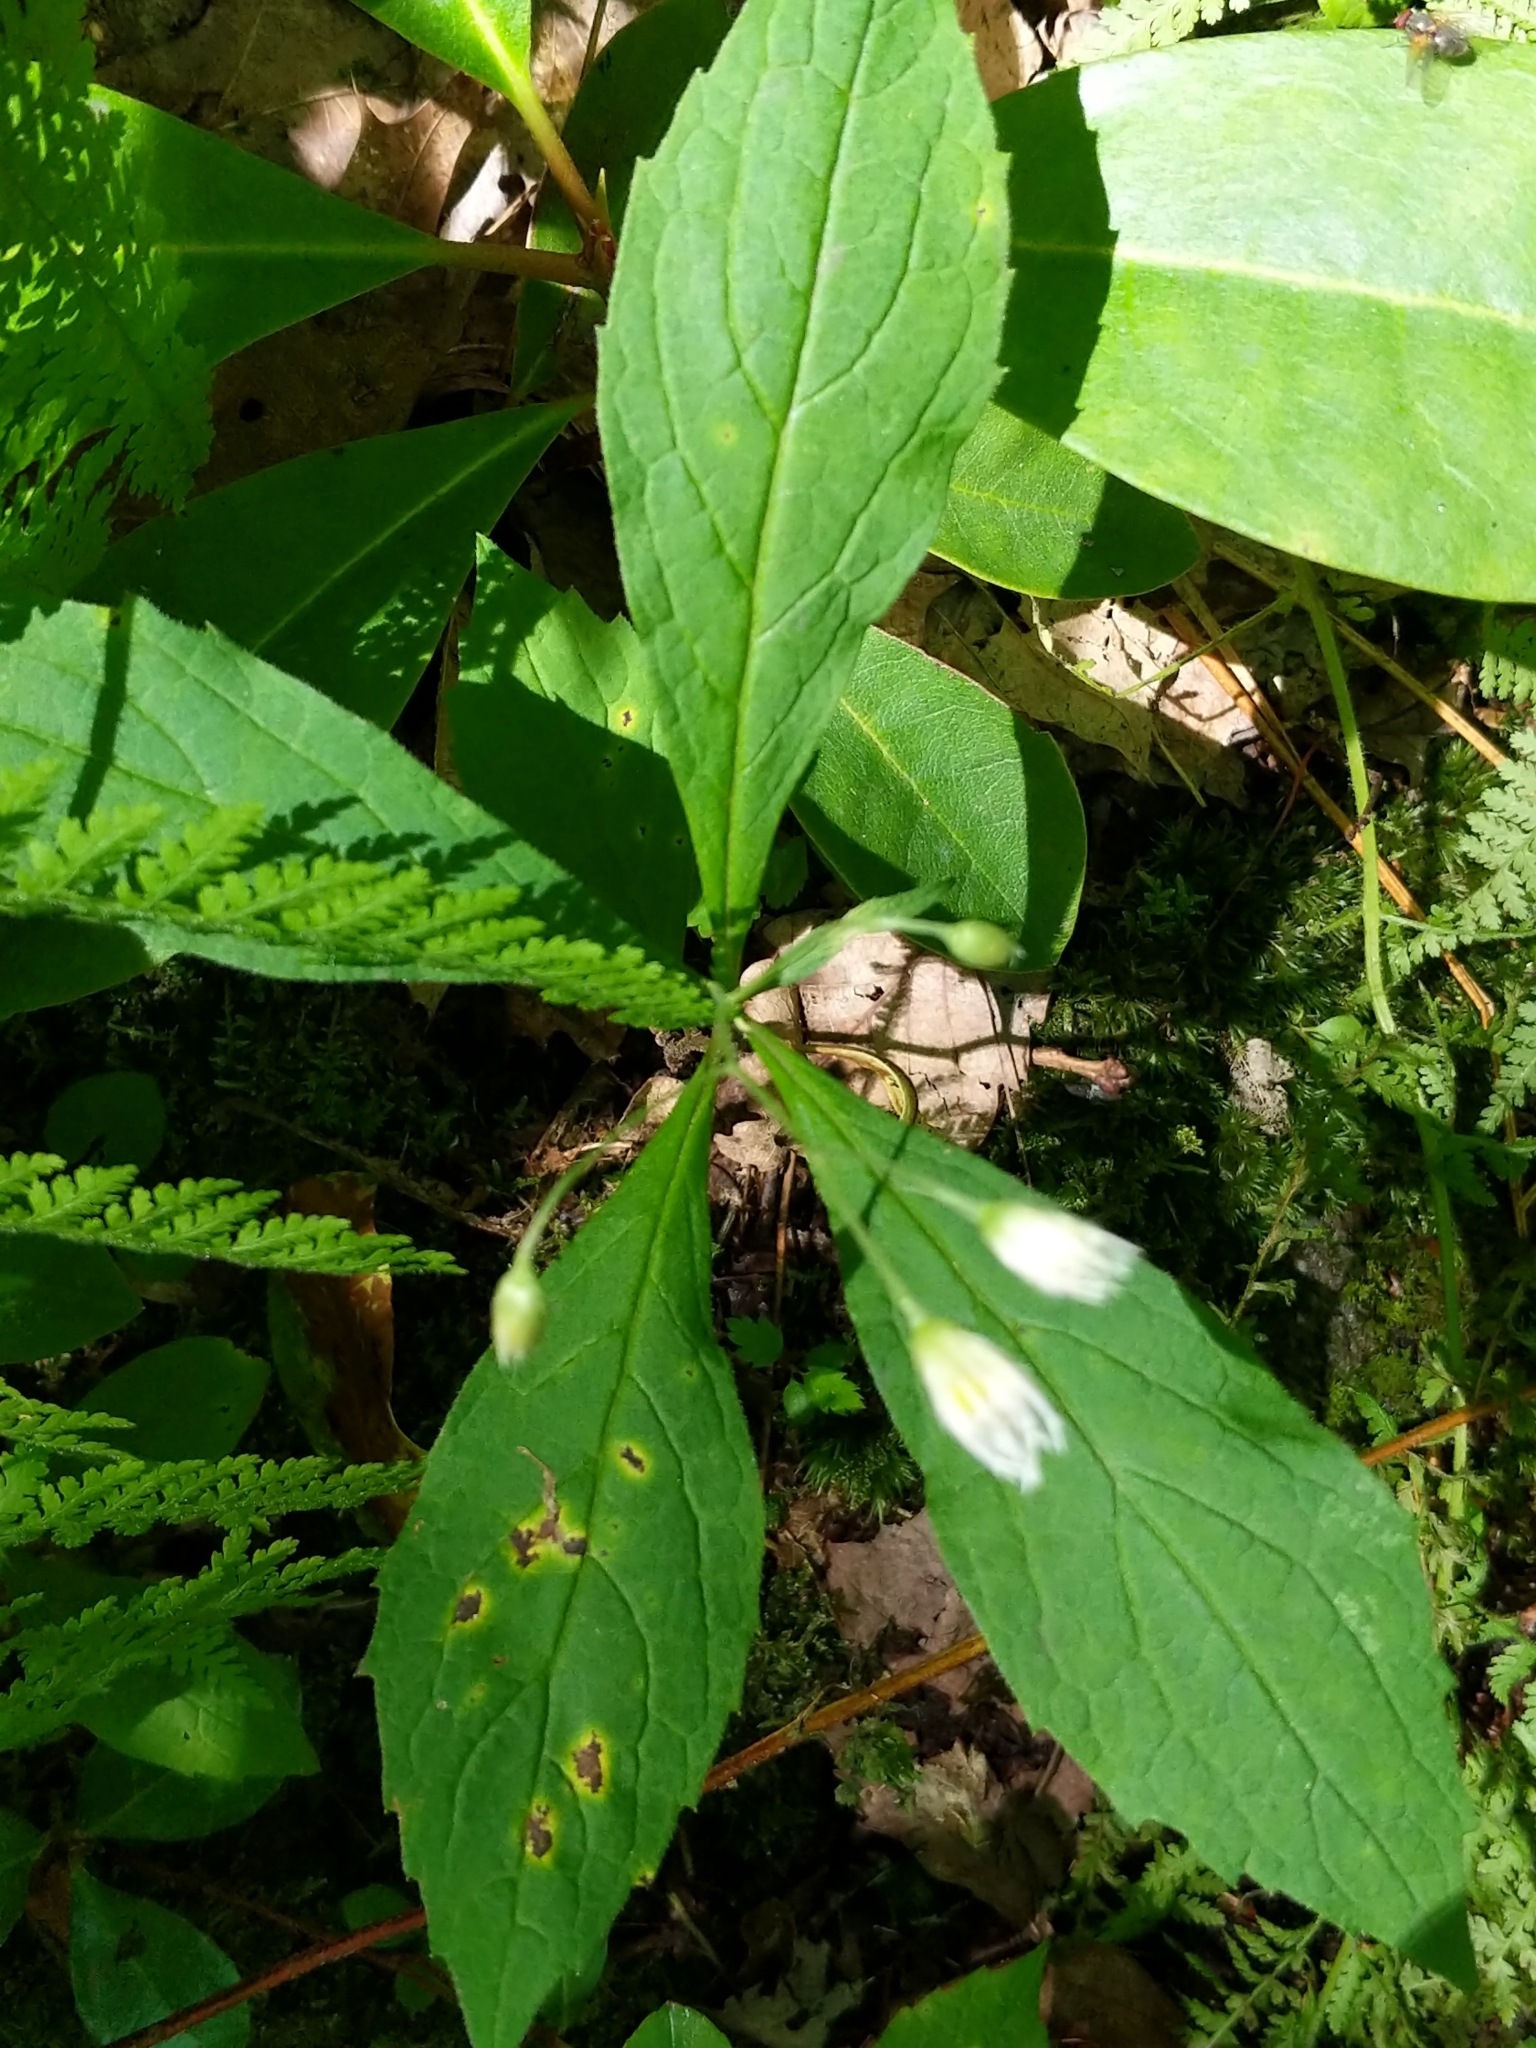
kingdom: Plantae
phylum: Tracheophyta
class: Magnoliopsida
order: Asterales
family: Asteraceae
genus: Oclemena
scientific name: Oclemena acuminata
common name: Mountain aster
